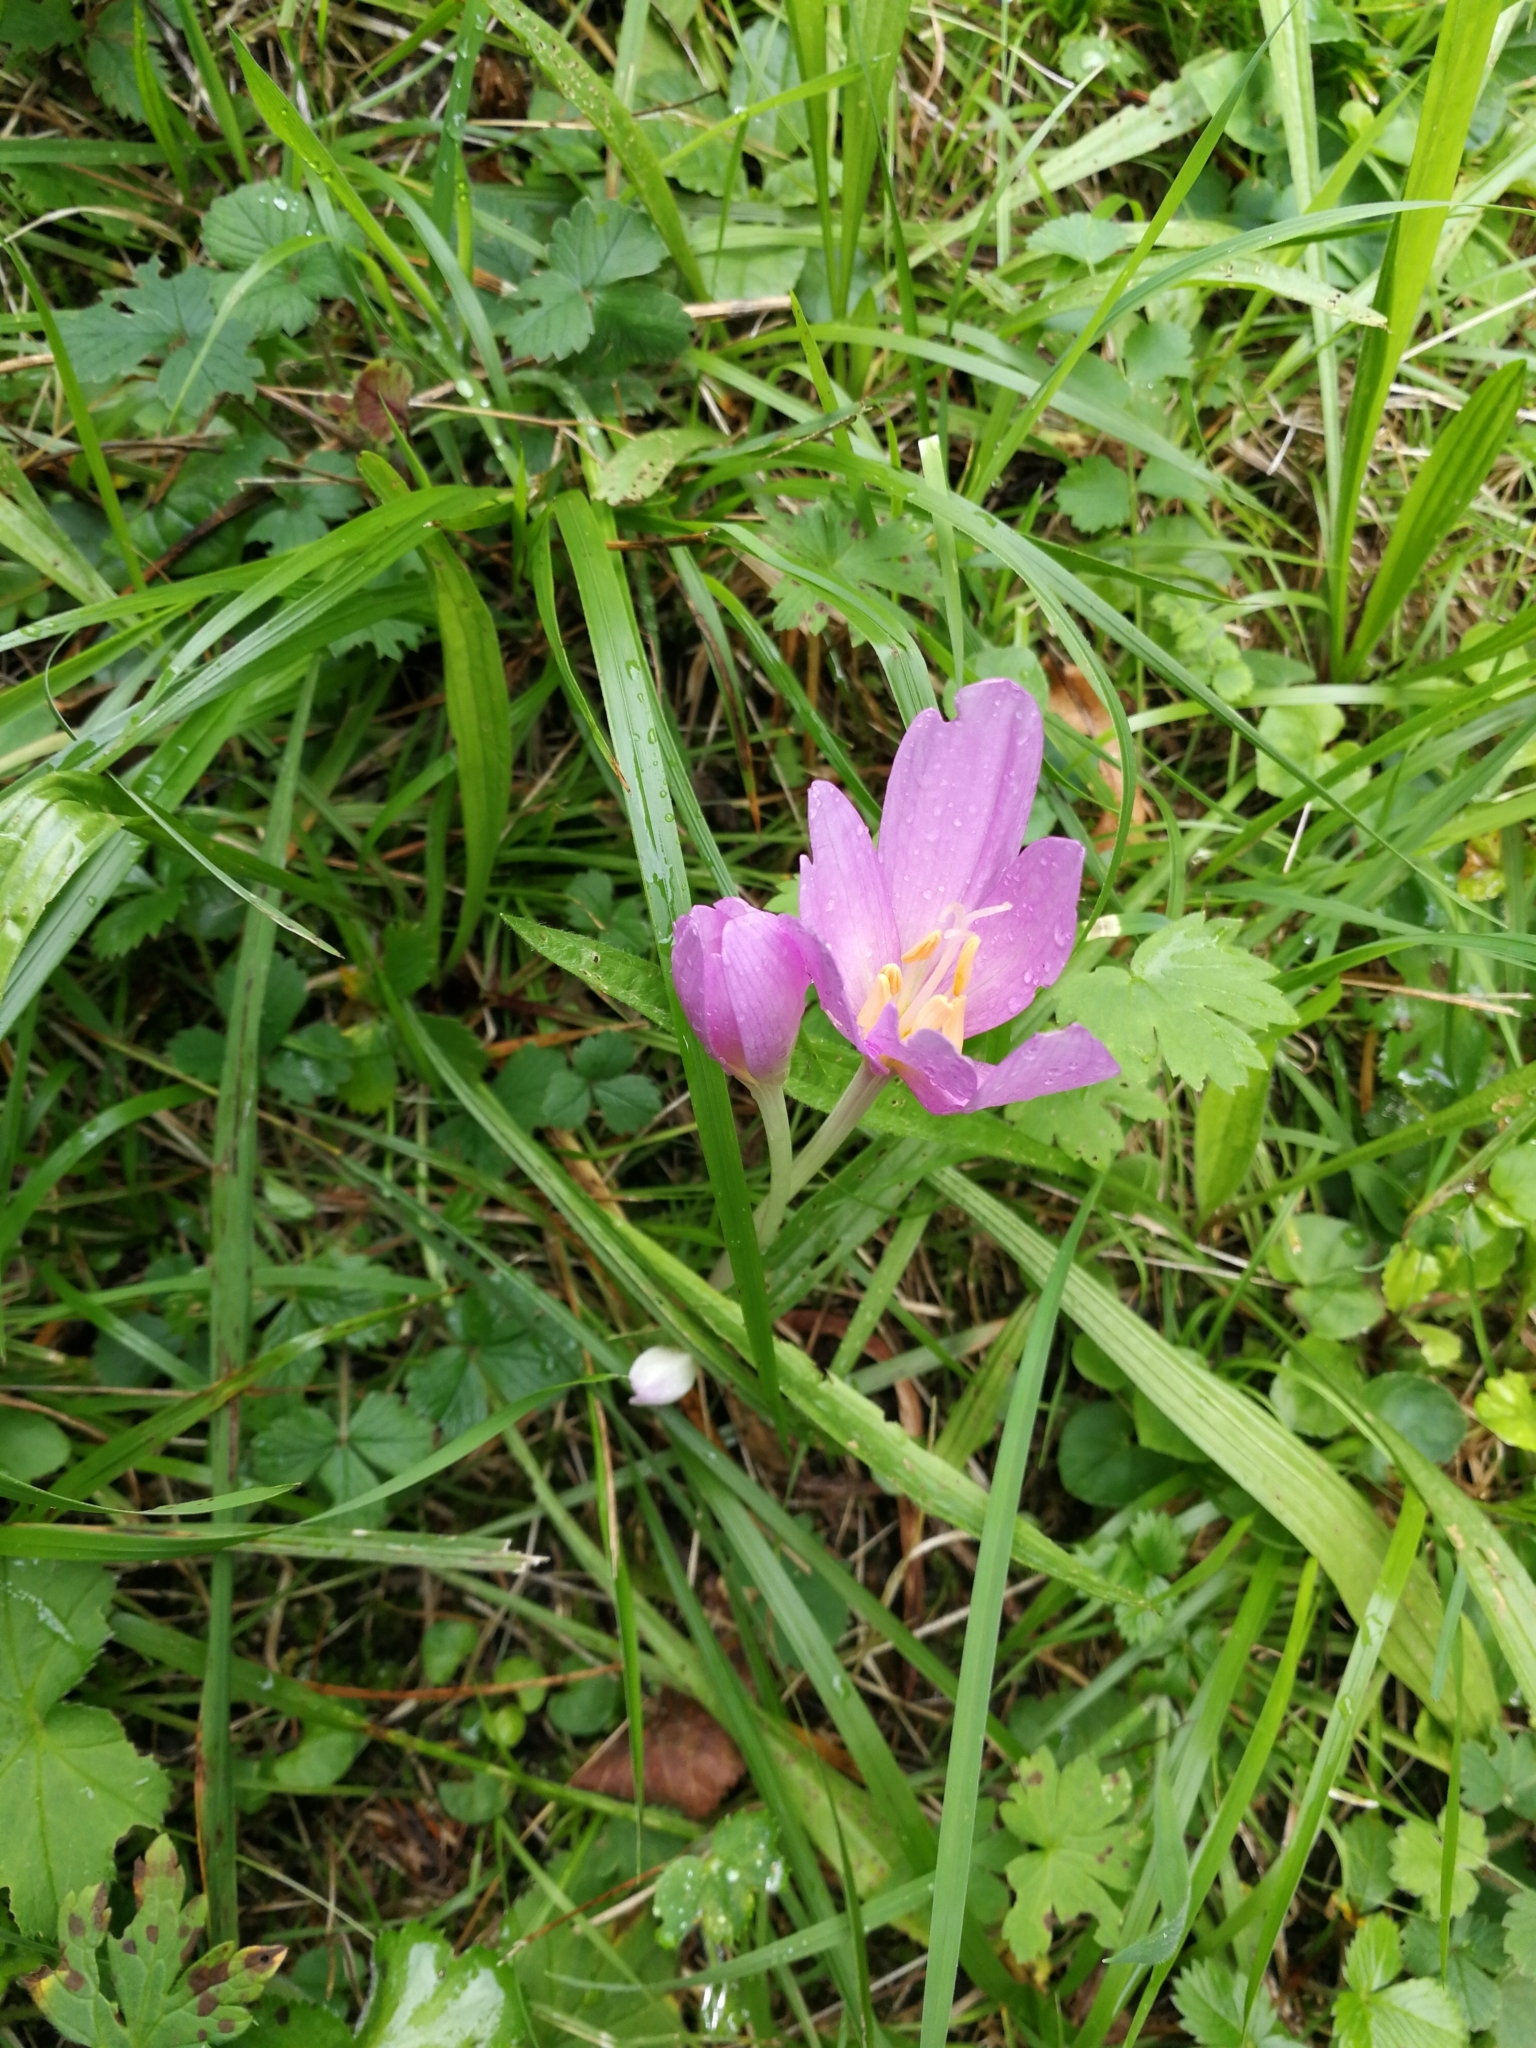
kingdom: Plantae
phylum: Tracheophyta
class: Liliopsida
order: Liliales
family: Colchicaceae
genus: Colchicum
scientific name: Colchicum autumnale
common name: Autumn crocus
